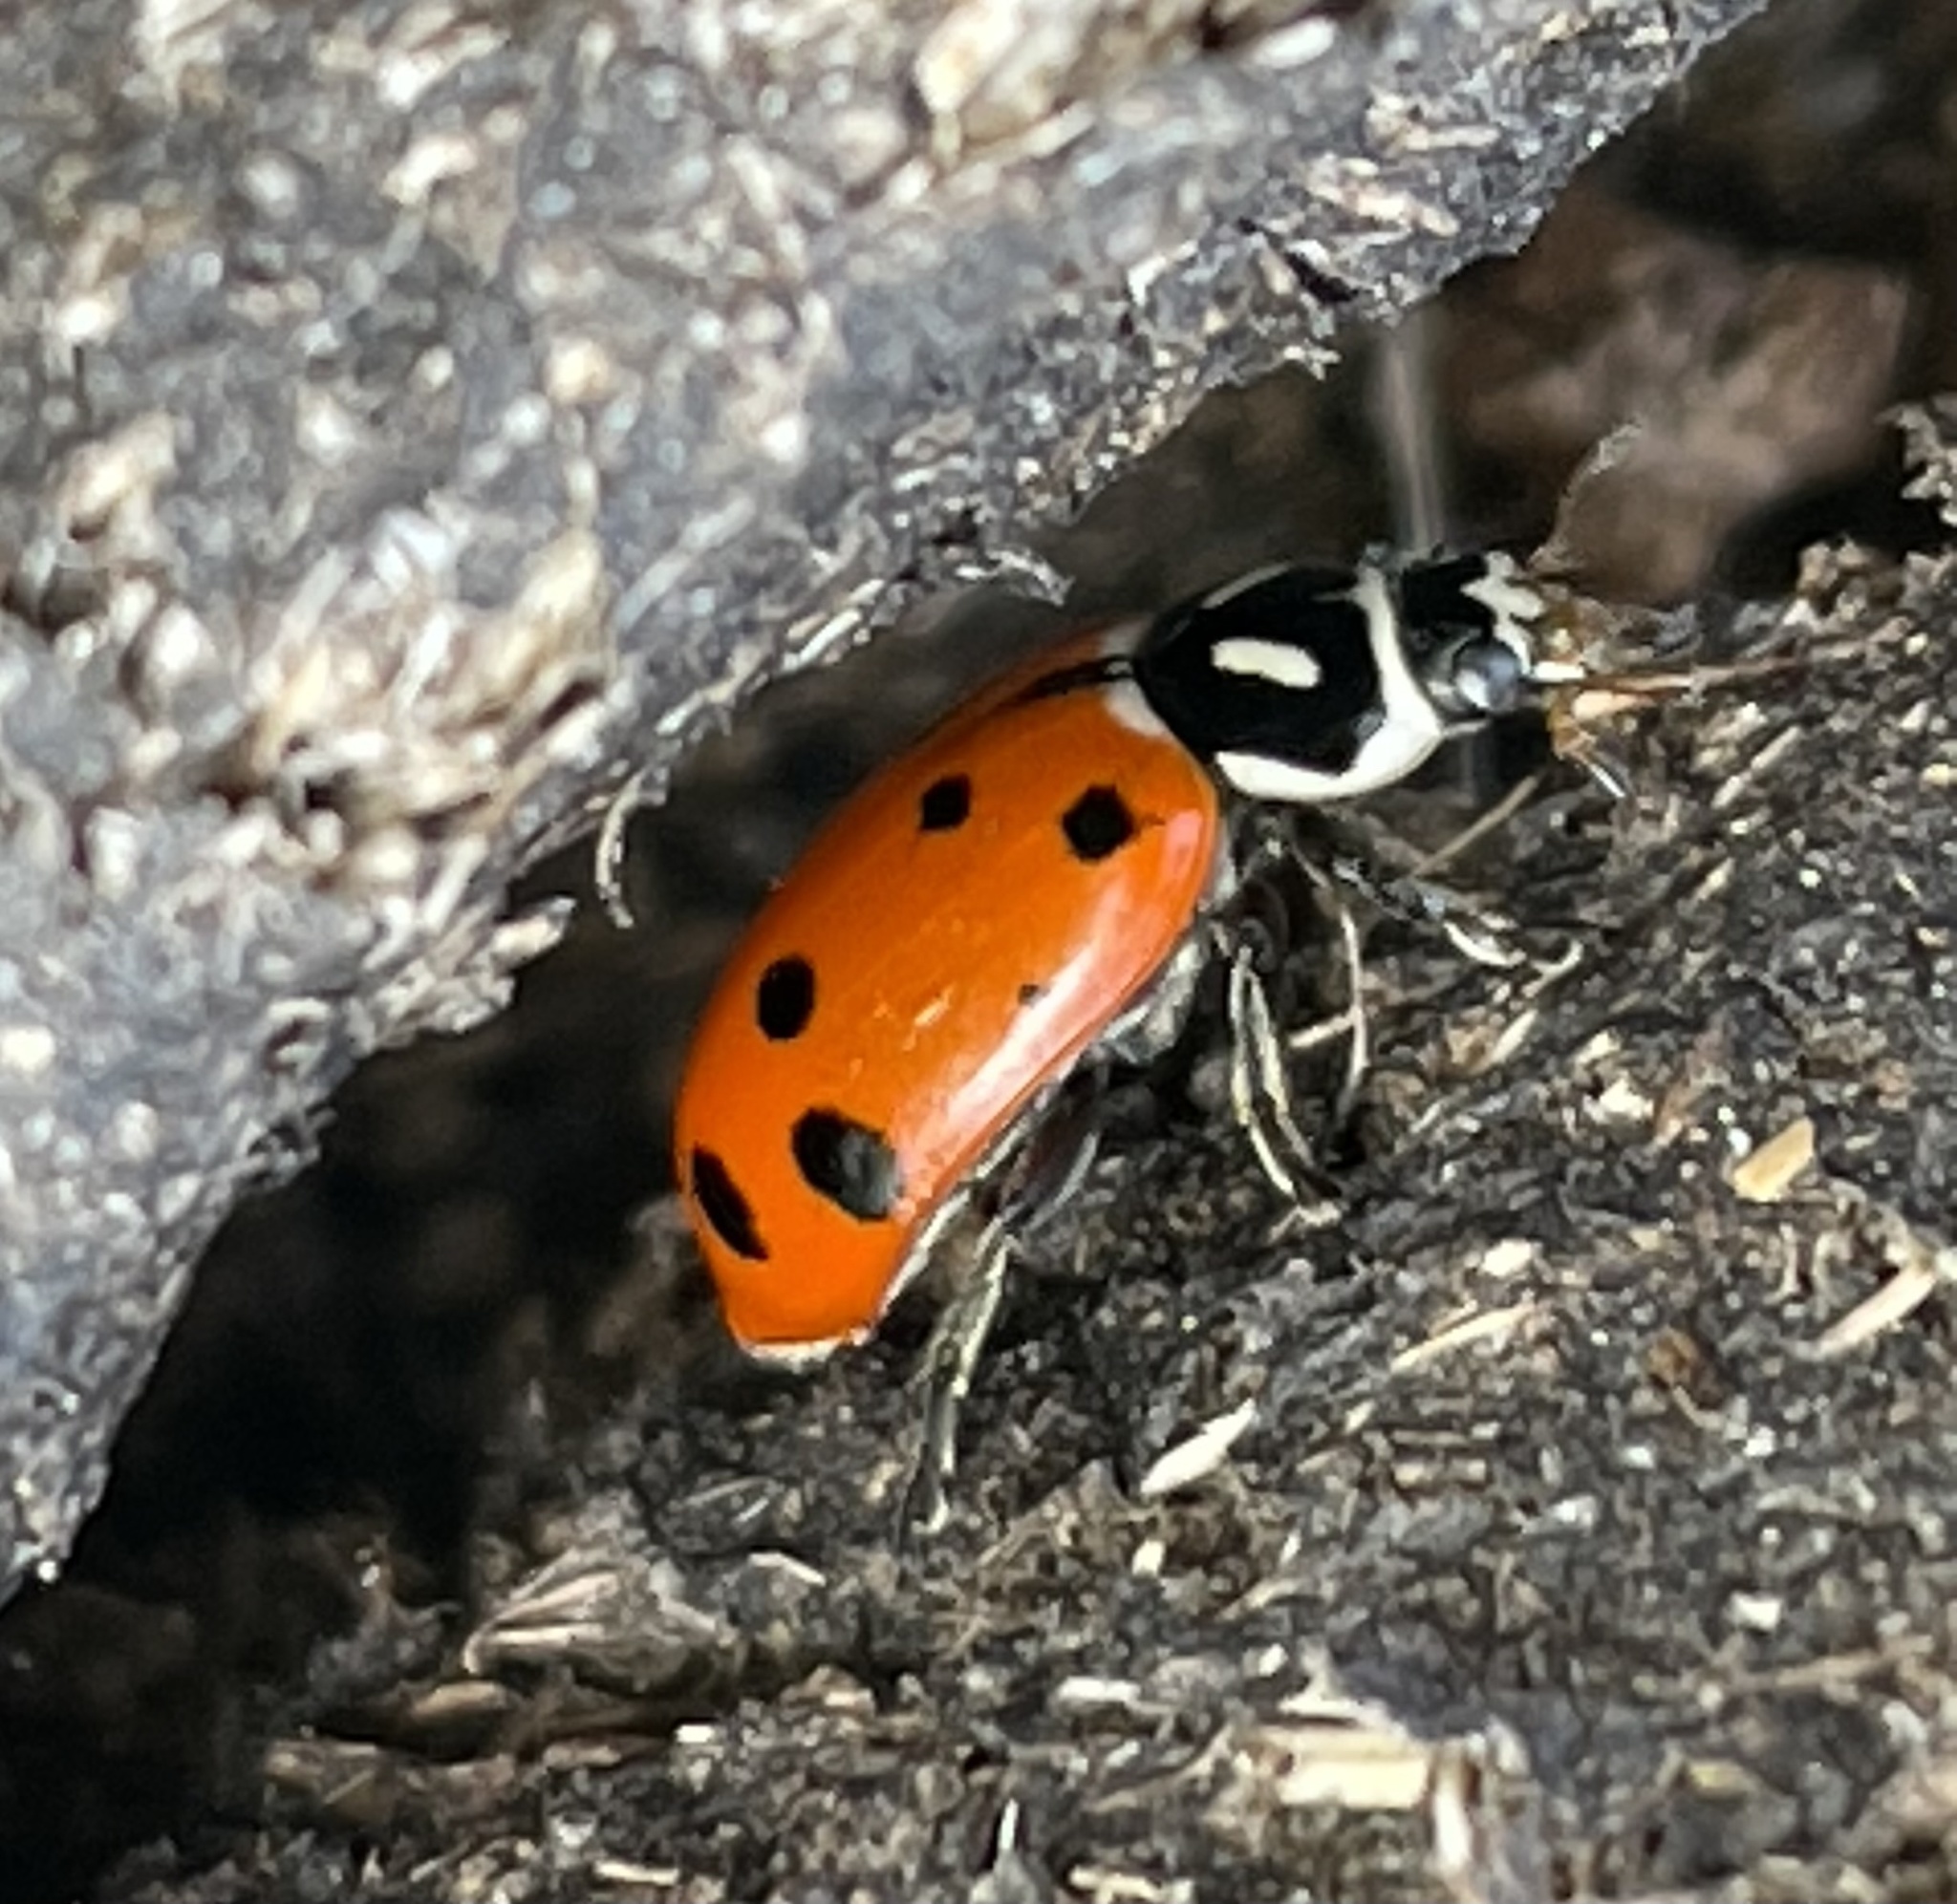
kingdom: Animalia
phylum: Arthropoda
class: Insecta
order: Coleoptera
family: Coccinellidae
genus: Hippodamia
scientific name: Hippodamia convergens
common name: Convergent lady beetle
